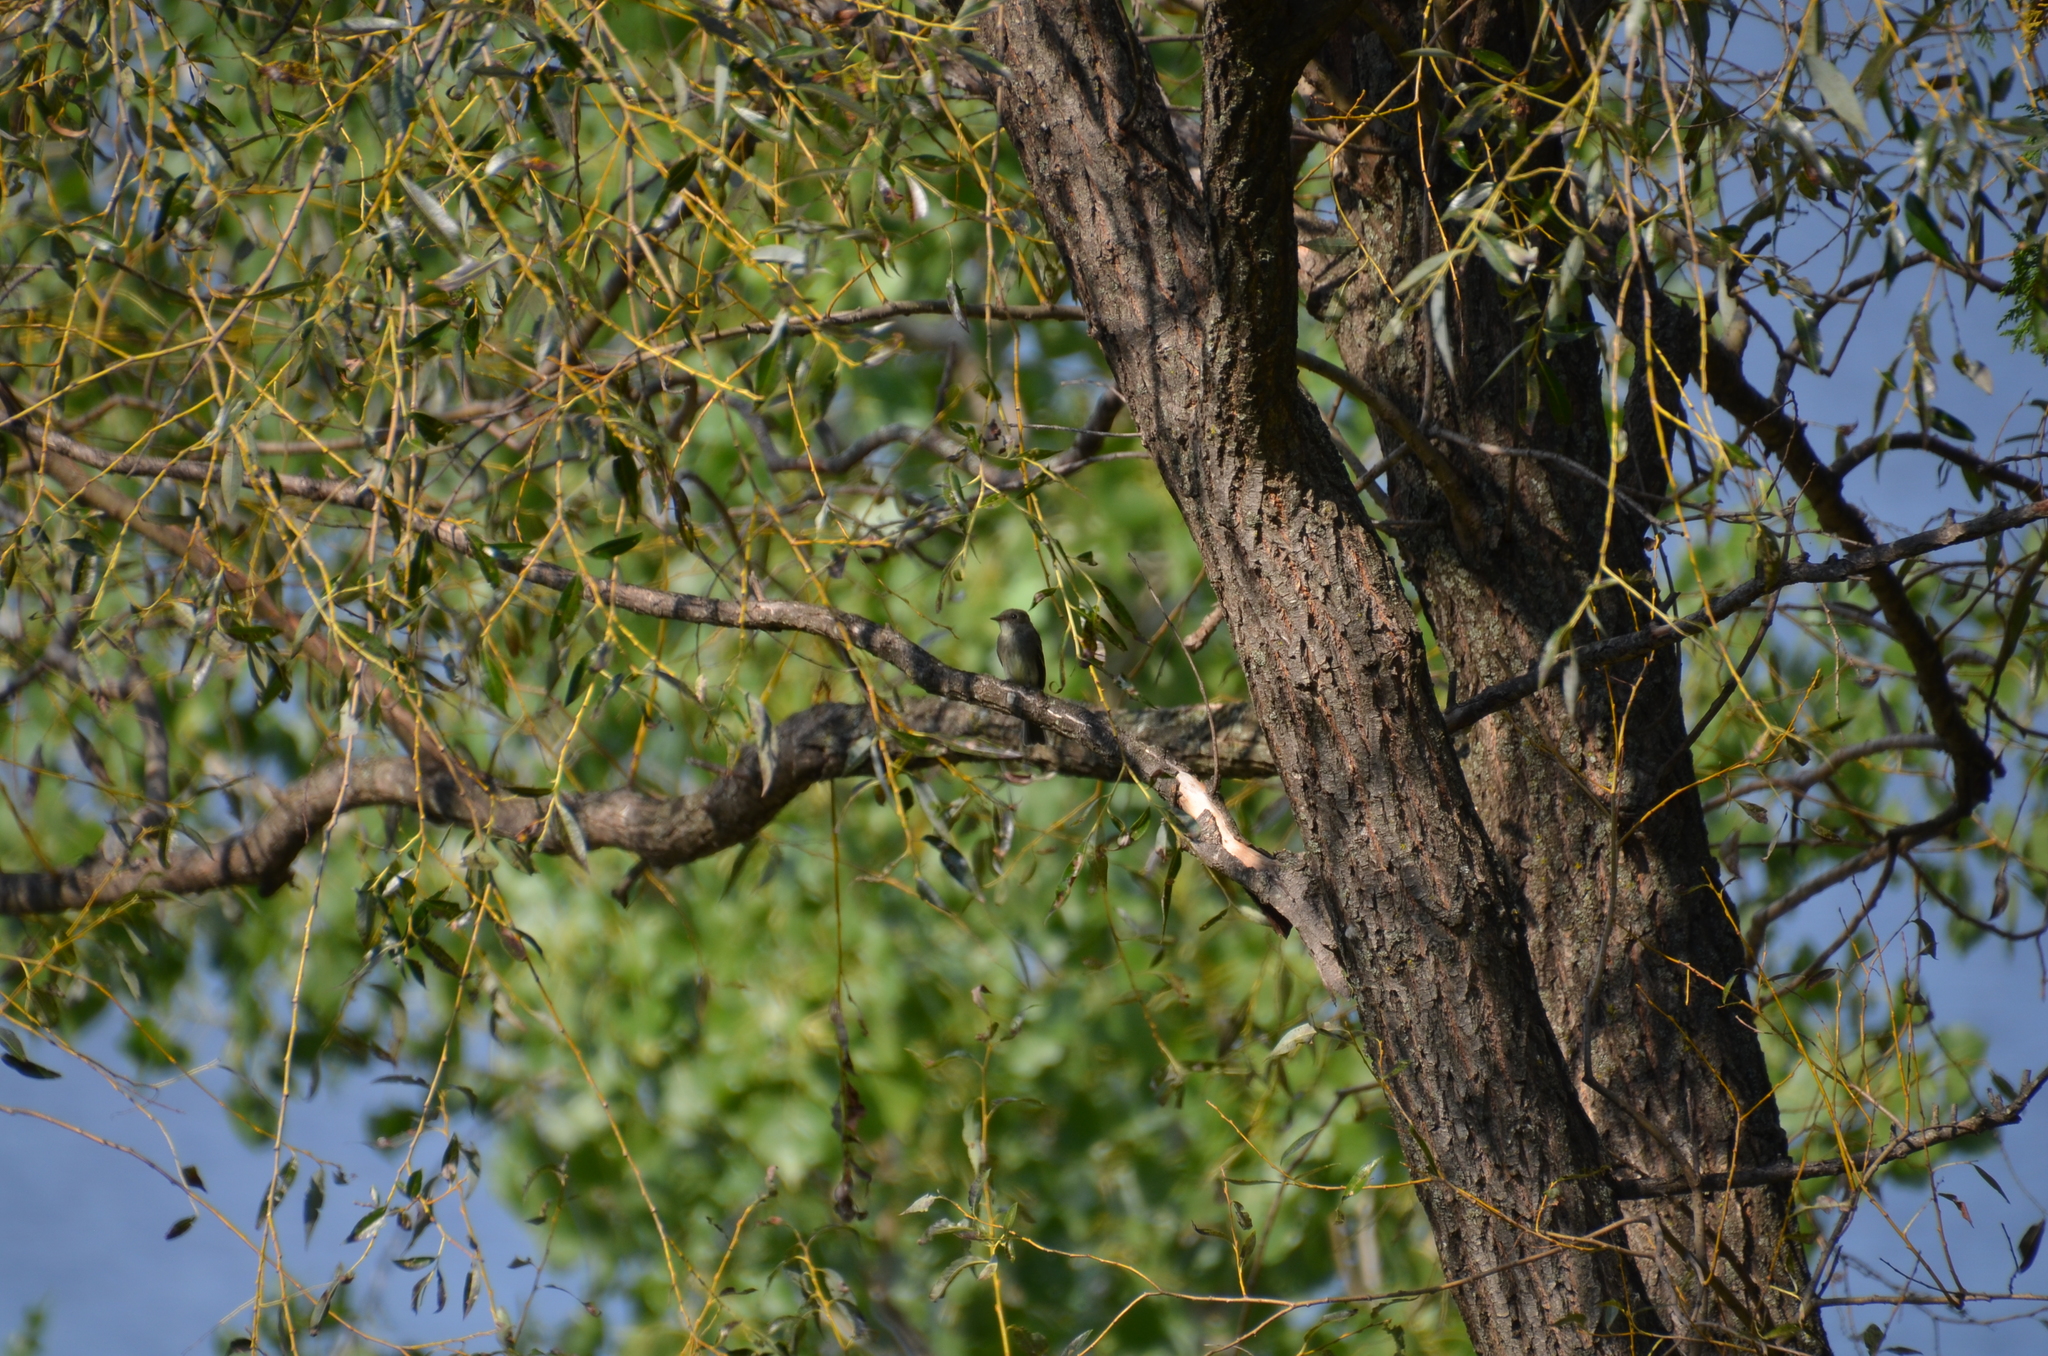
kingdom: Animalia
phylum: Chordata
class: Aves
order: Passeriformes
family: Tyrannidae
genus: Contopus
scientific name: Contopus virens
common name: Eastern wood-pewee
